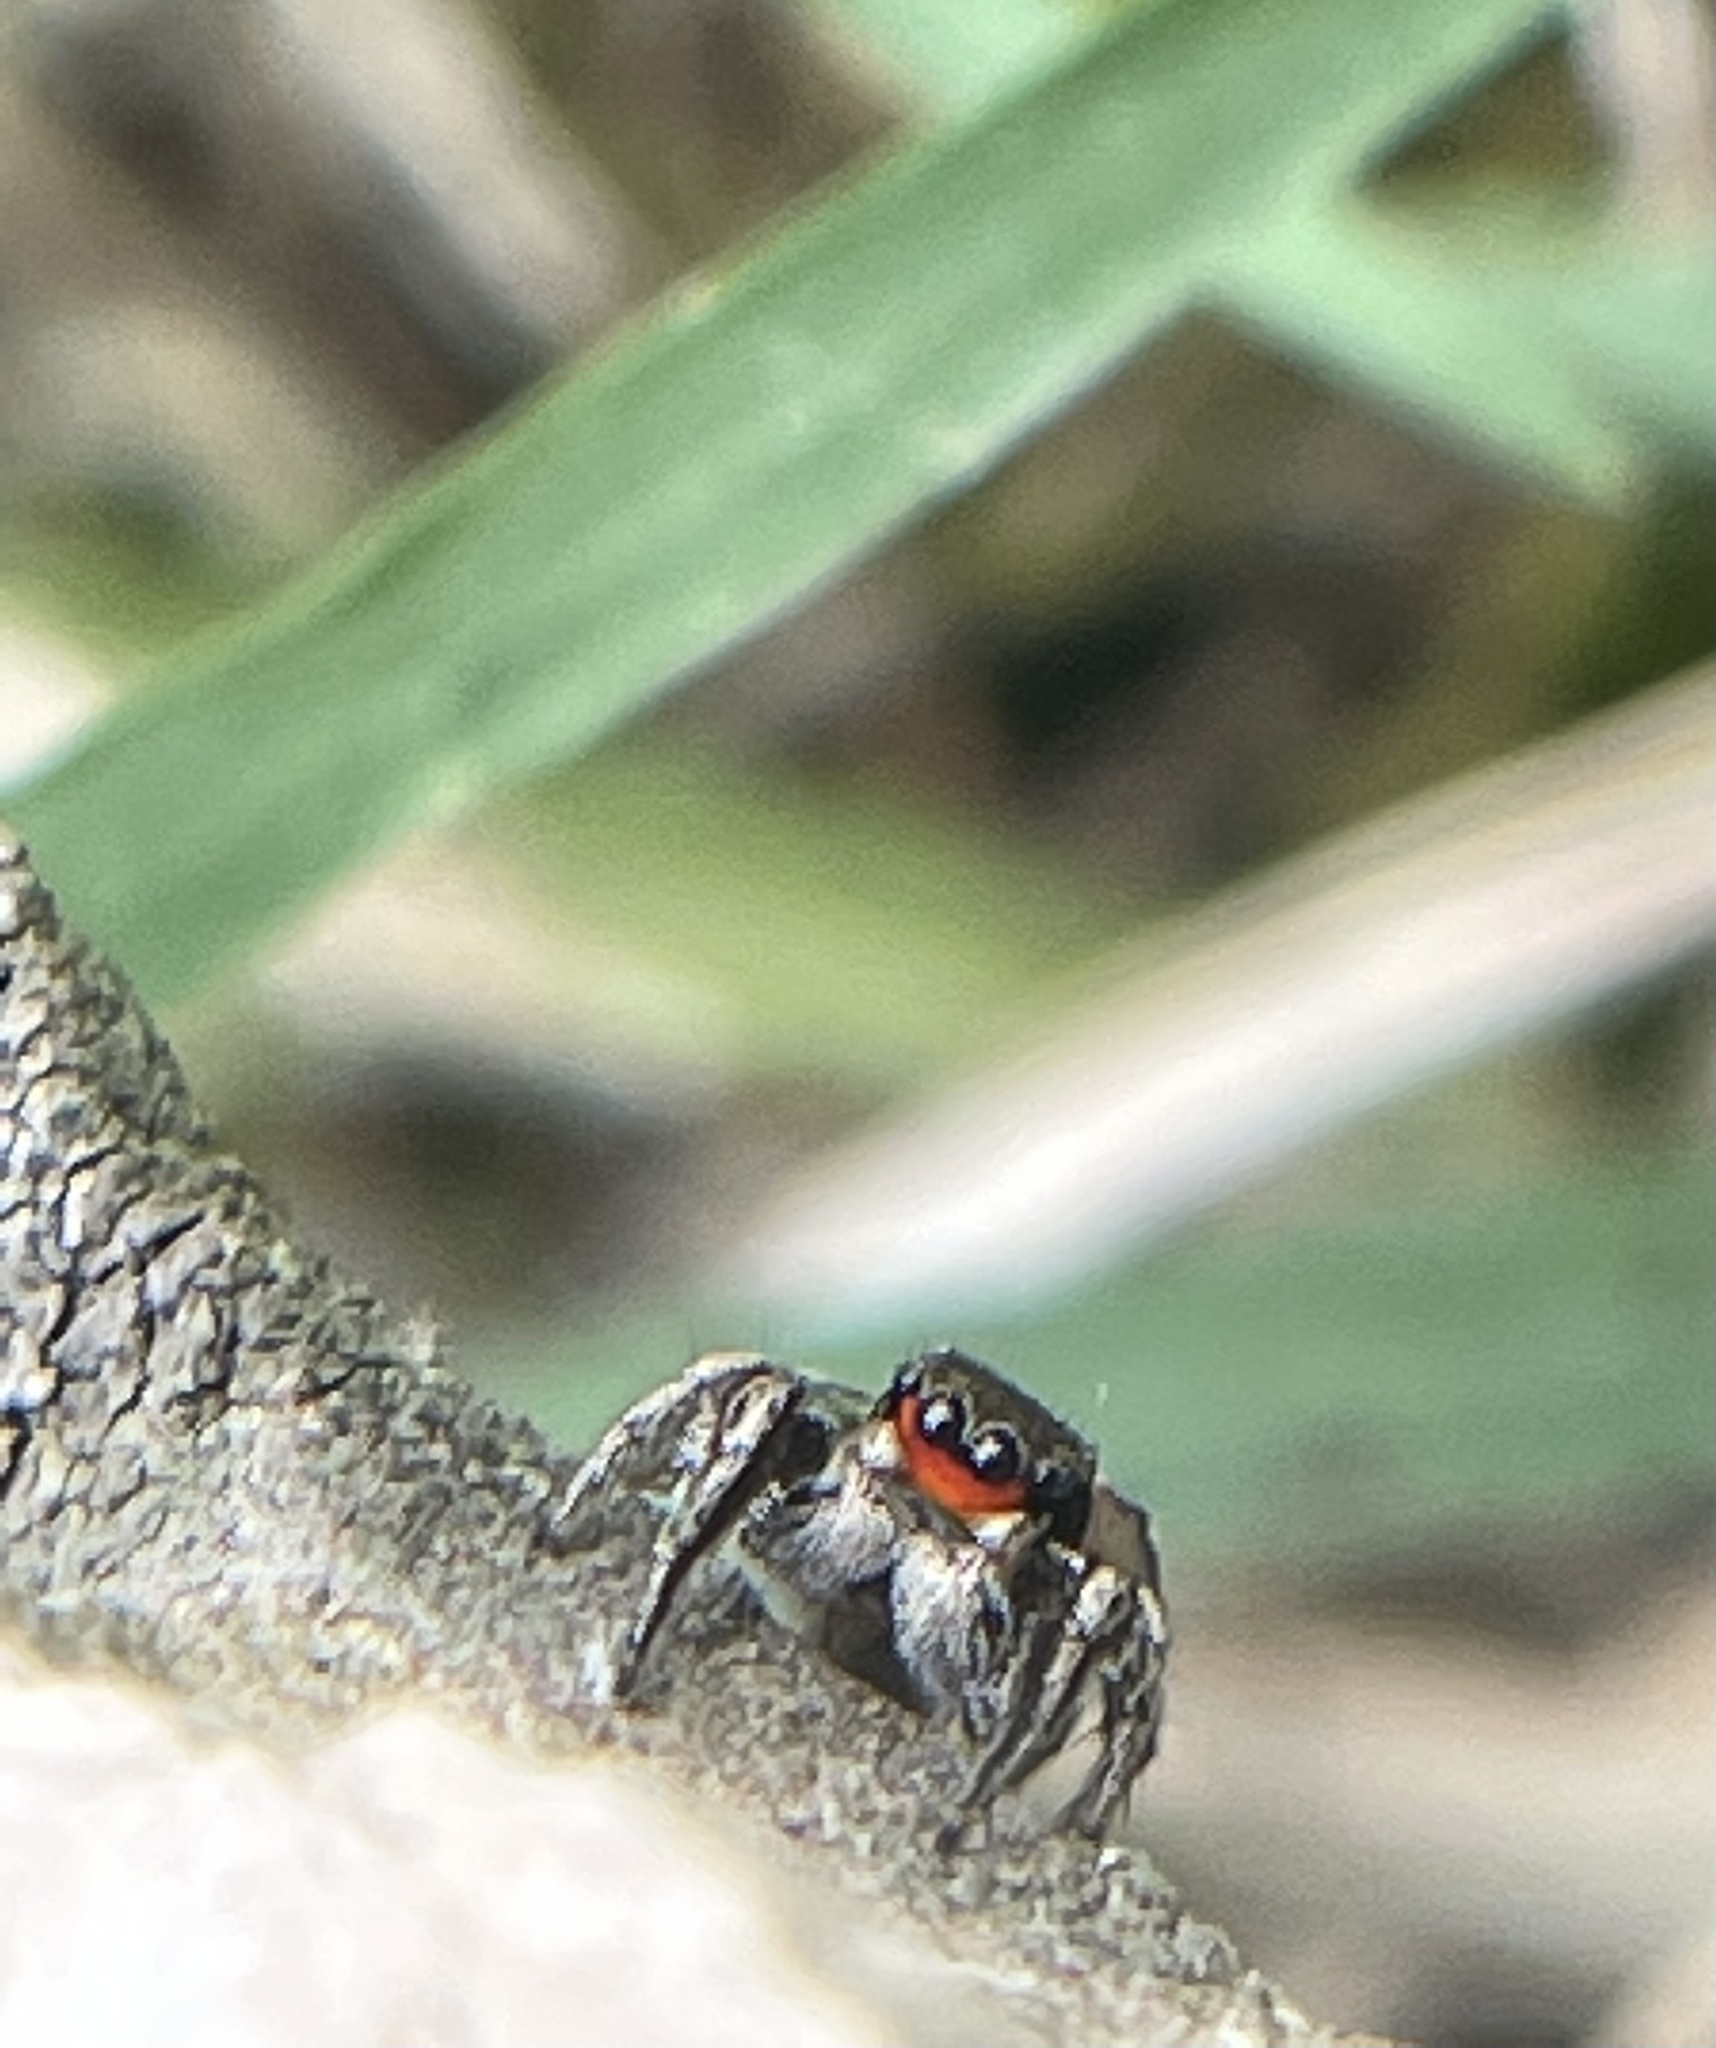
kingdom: Animalia
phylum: Arthropoda
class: Arachnida
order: Araneae
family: Salticidae
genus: Habronattus
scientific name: Habronattus coecatus
